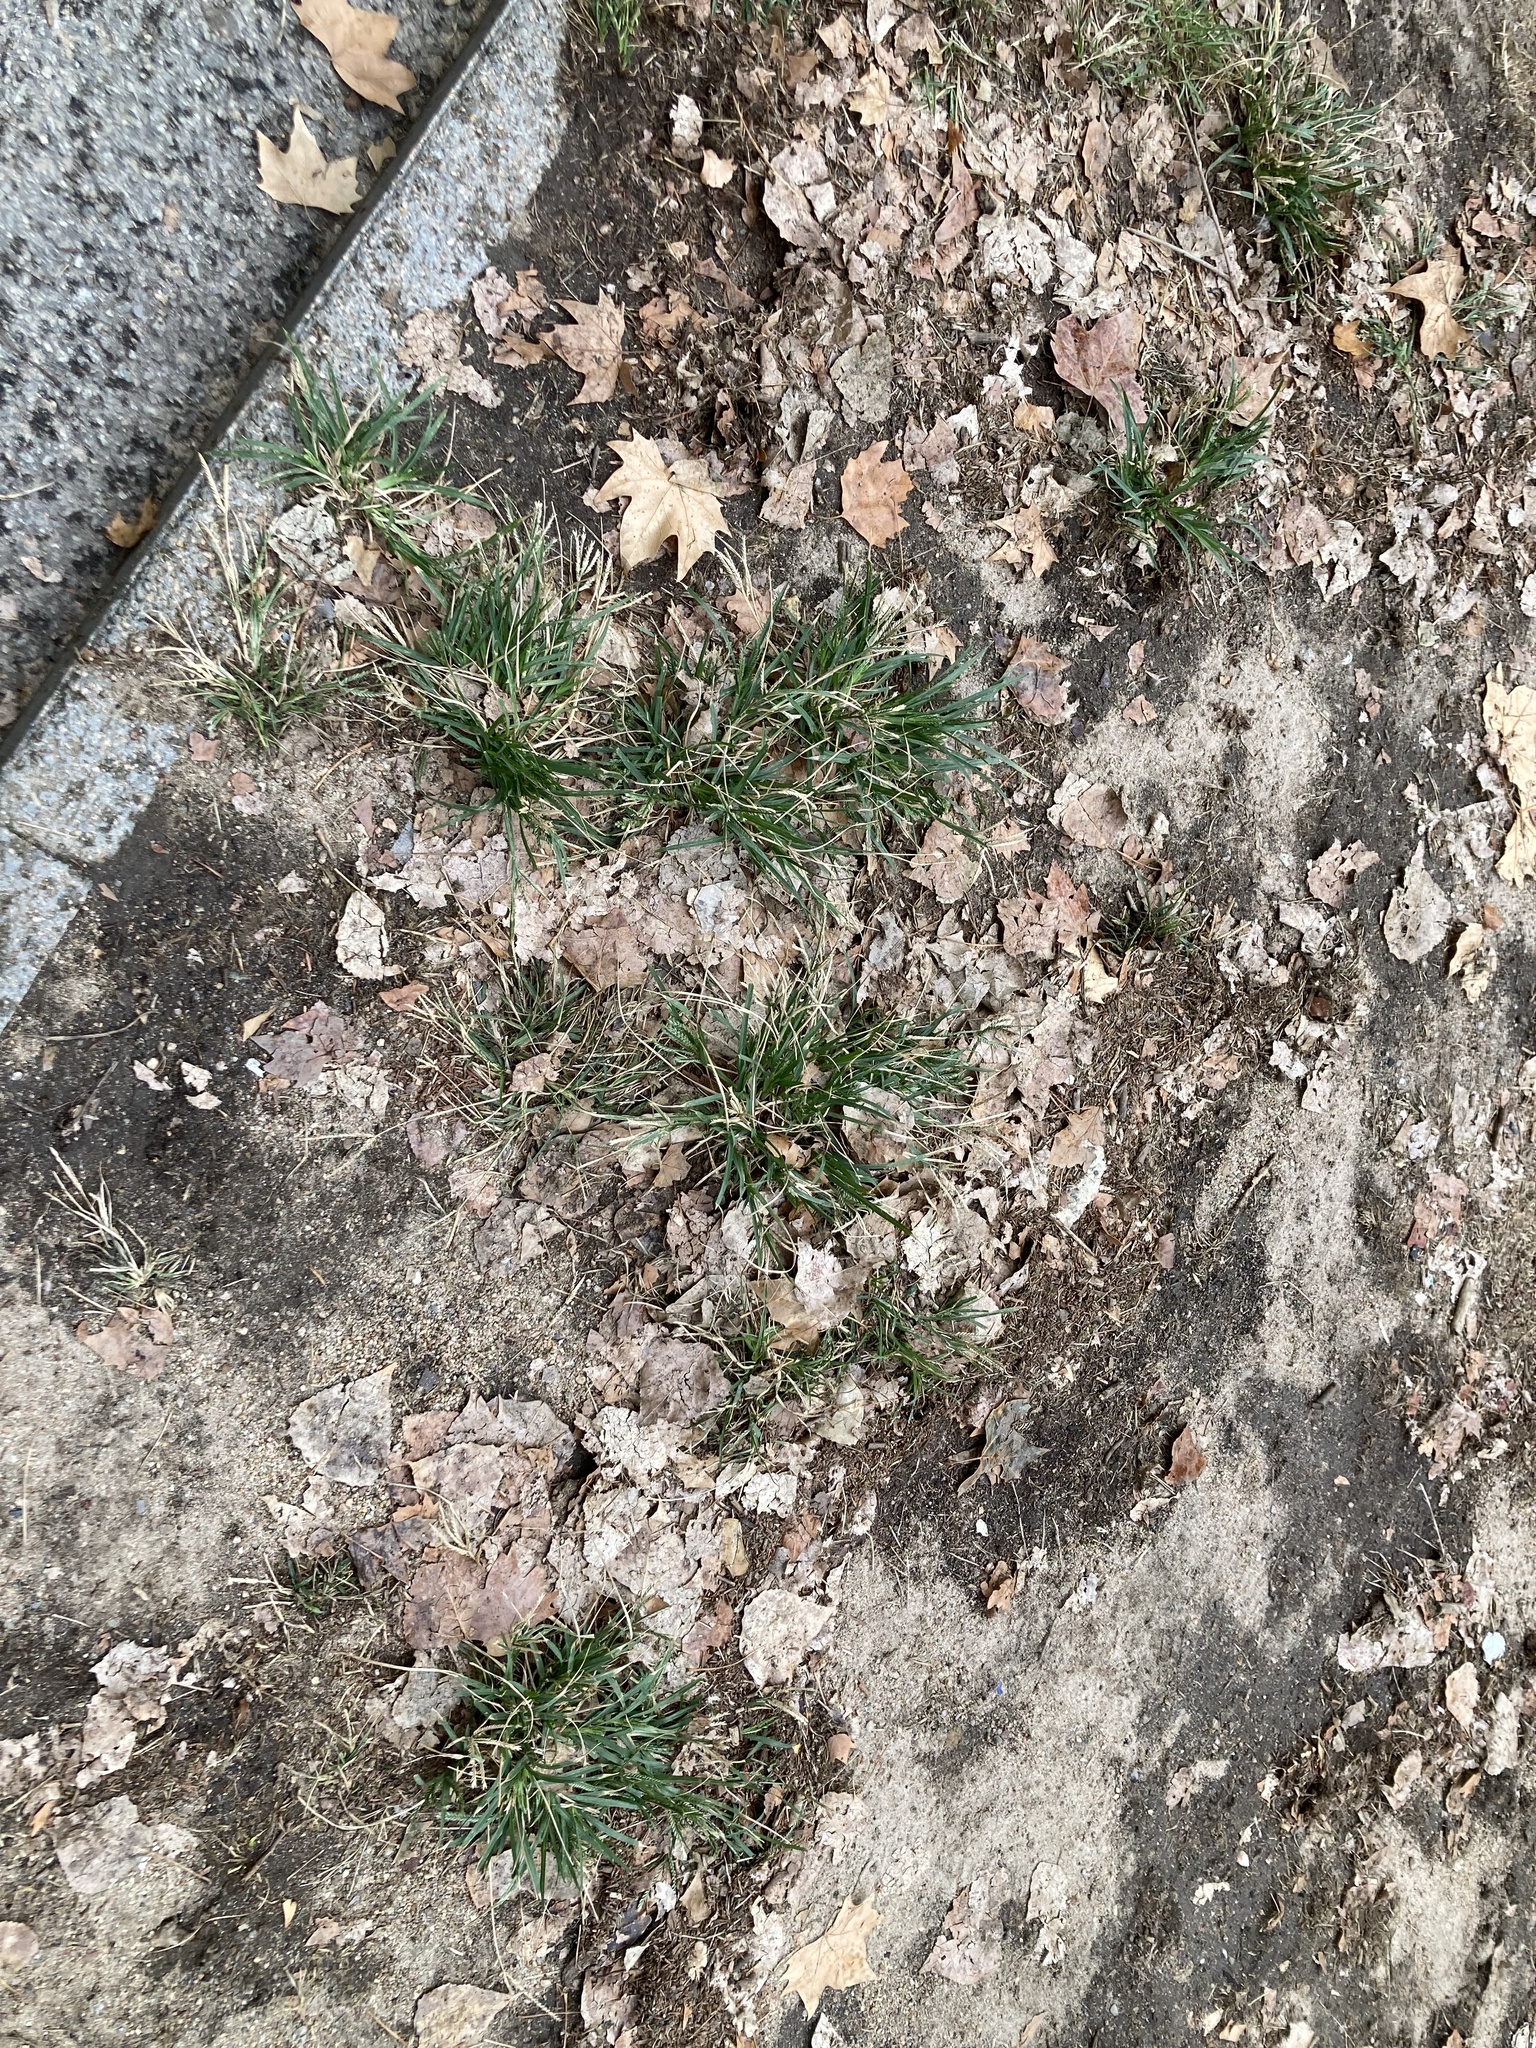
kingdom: Plantae
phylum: Tracheophyta
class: Liliopsida
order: Poales
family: Poaceae
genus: Eleusine
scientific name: Eleusine indica
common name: Yard-grass
